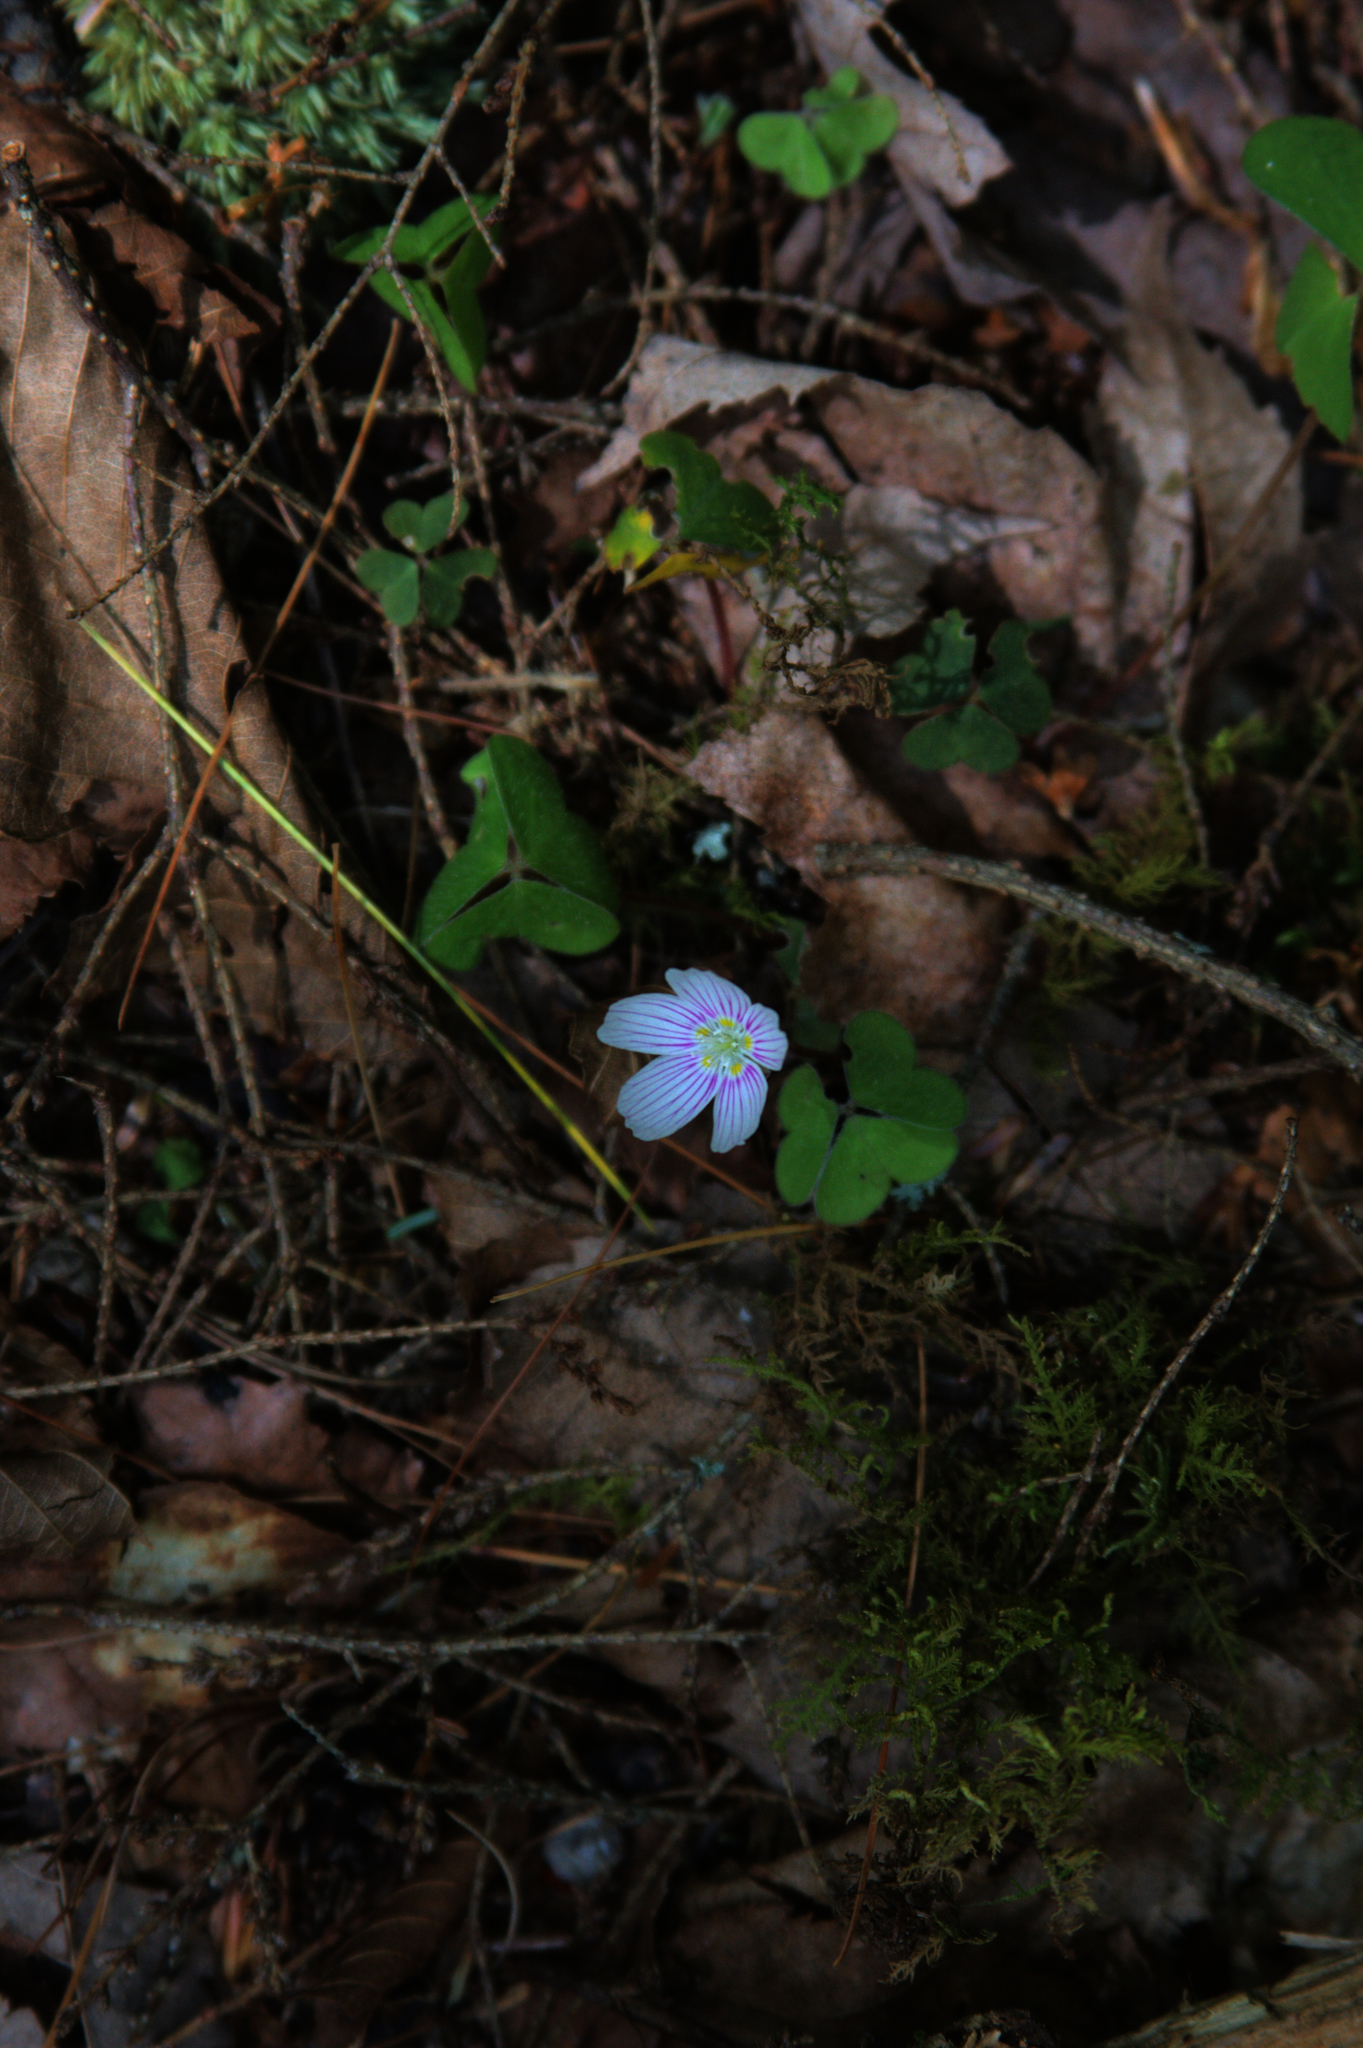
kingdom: Plantae
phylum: Tracheophyta
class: Magnoliopsida
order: Oxalidales
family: Oxalidaceae
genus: Oxalis
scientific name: Oxalis montana
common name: American wood-sorrel
